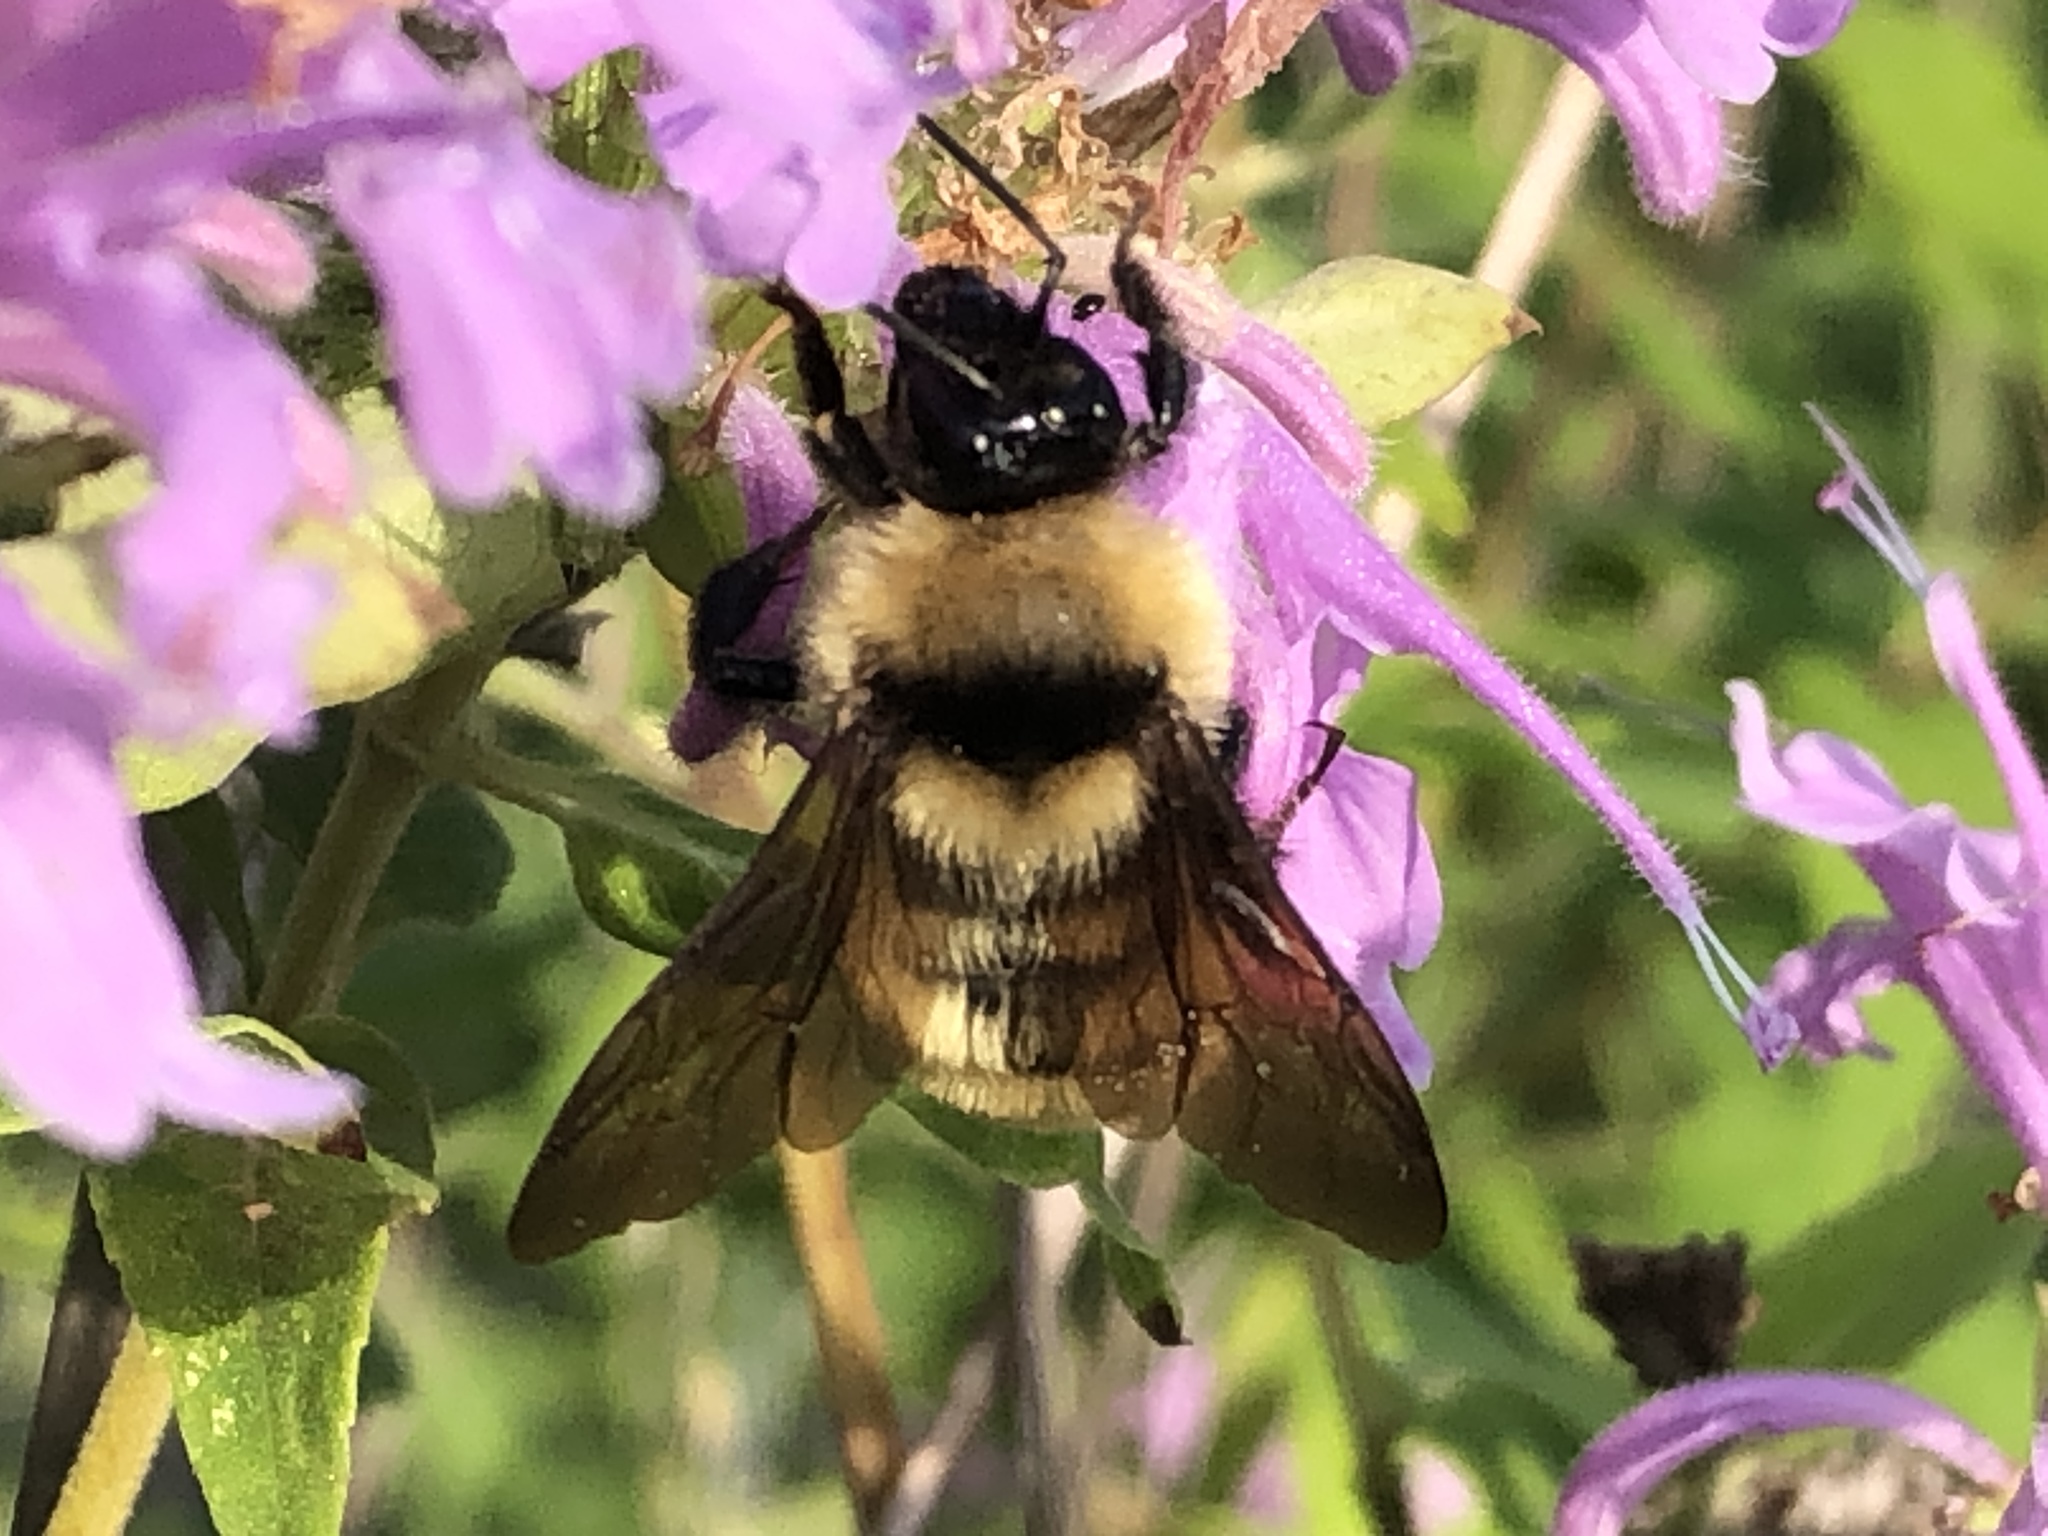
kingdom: Animalia
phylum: Arthropoda
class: Insecta
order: Hymenoptera
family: Apidae
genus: Bombus
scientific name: Bombus fervidus
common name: Yellow bumble bee
